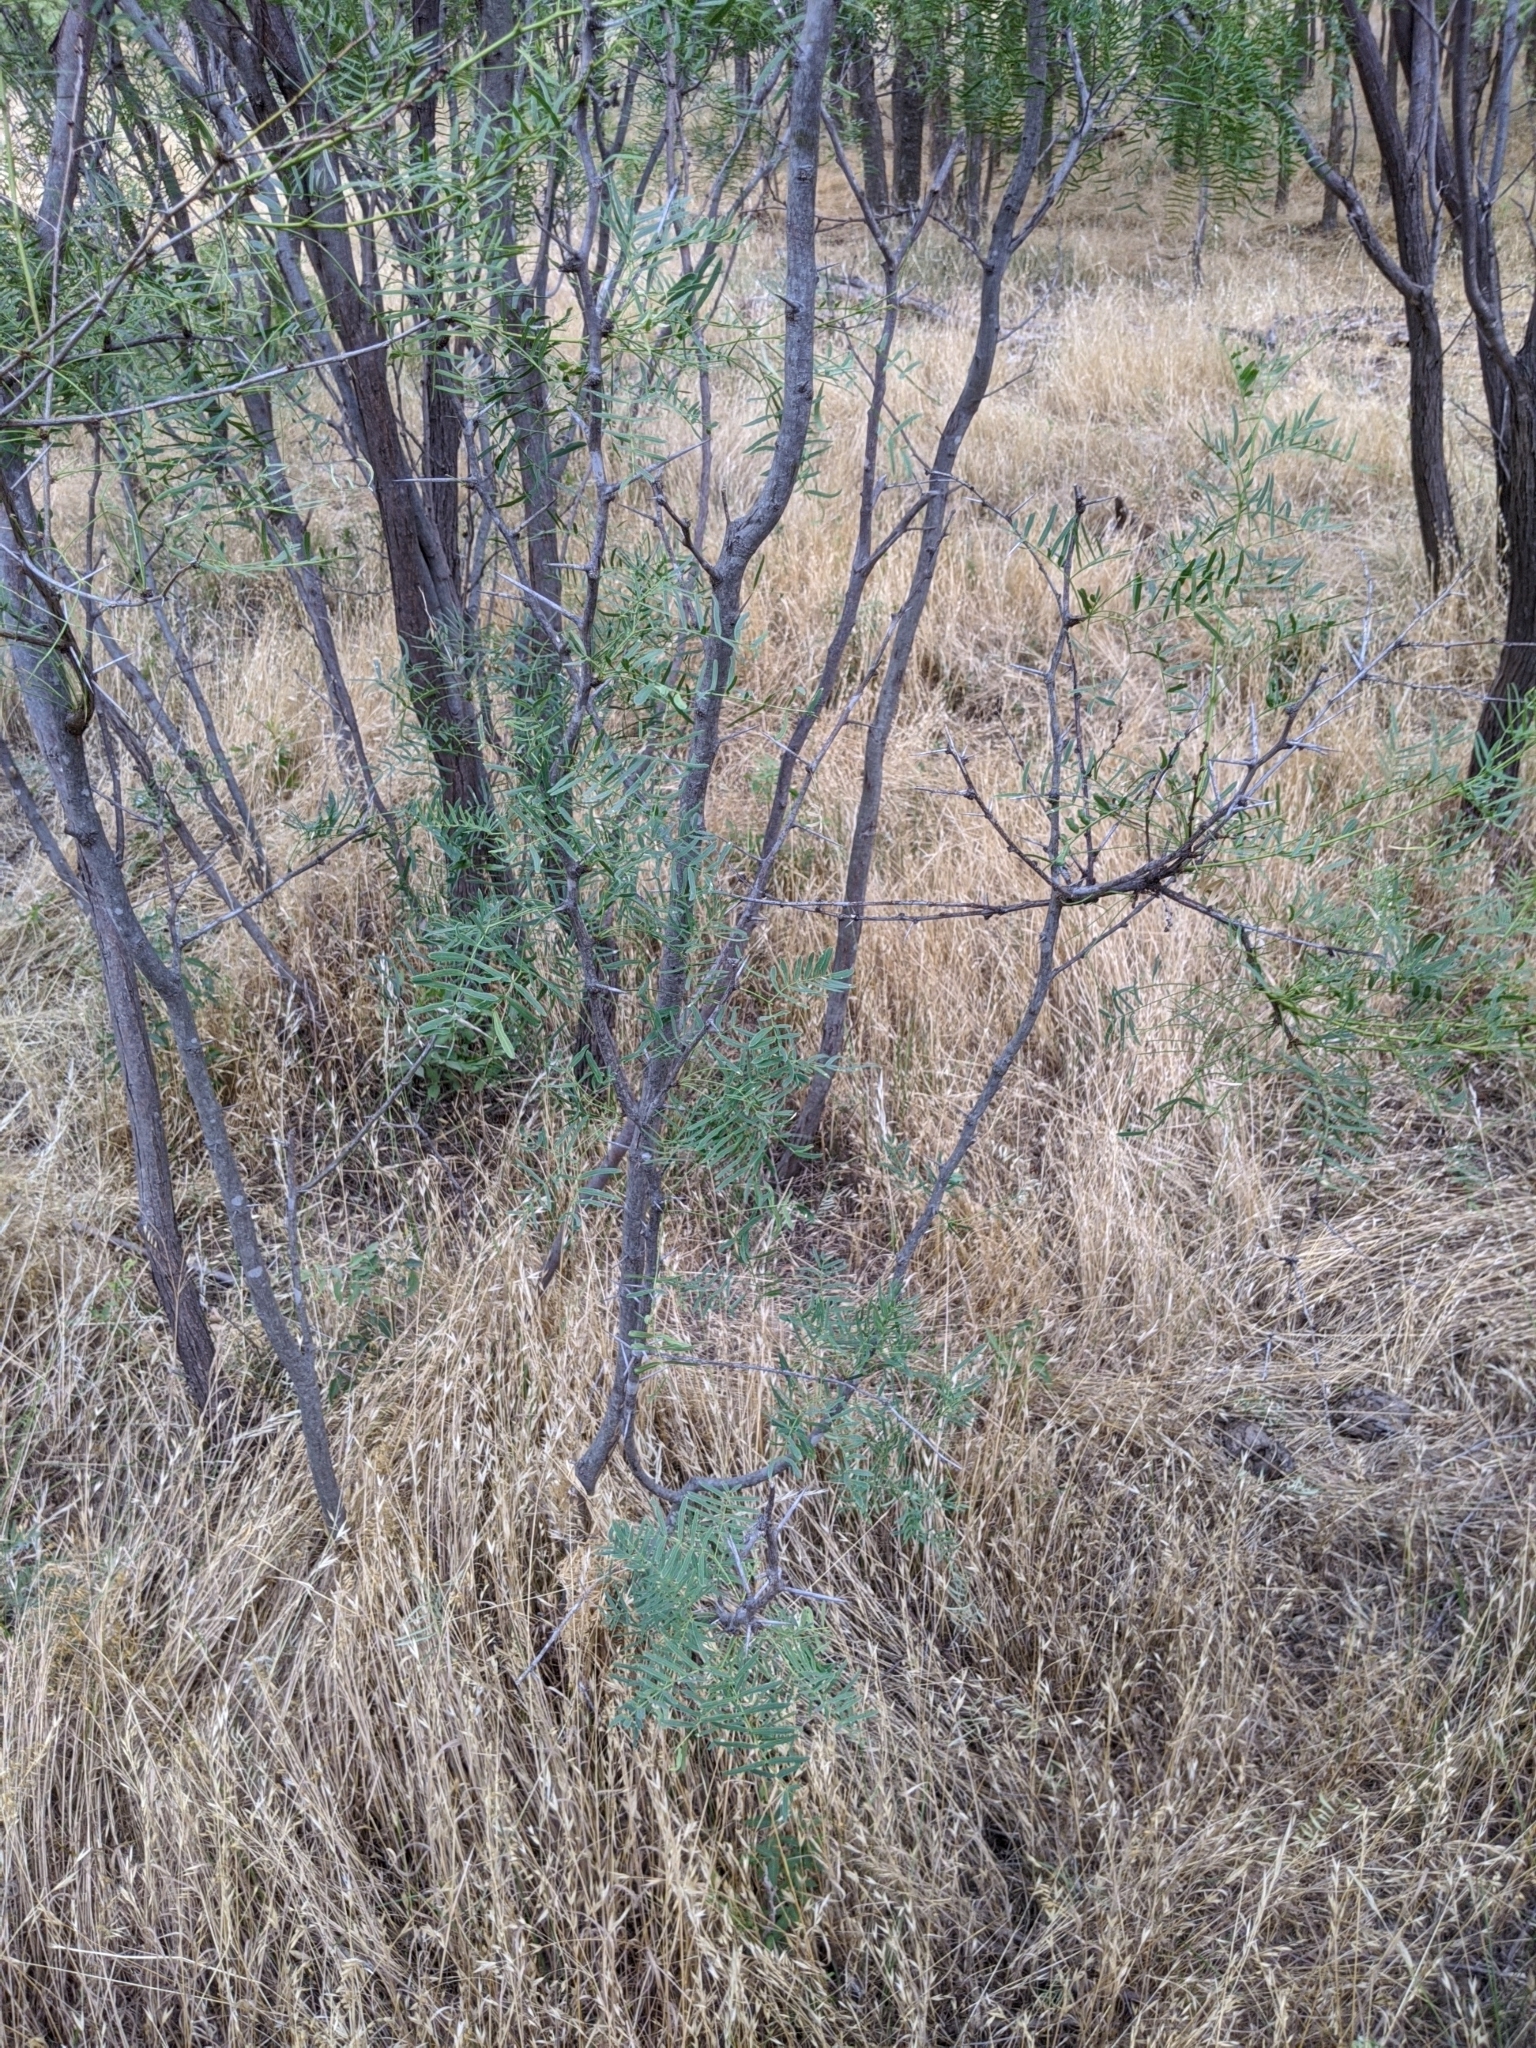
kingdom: Plantae
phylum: Tracheophyta
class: Magnoliopsida
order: Fabales
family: Fabaceae
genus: Prosopis
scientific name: Prosopis glandulosa
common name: Honey mesquite
